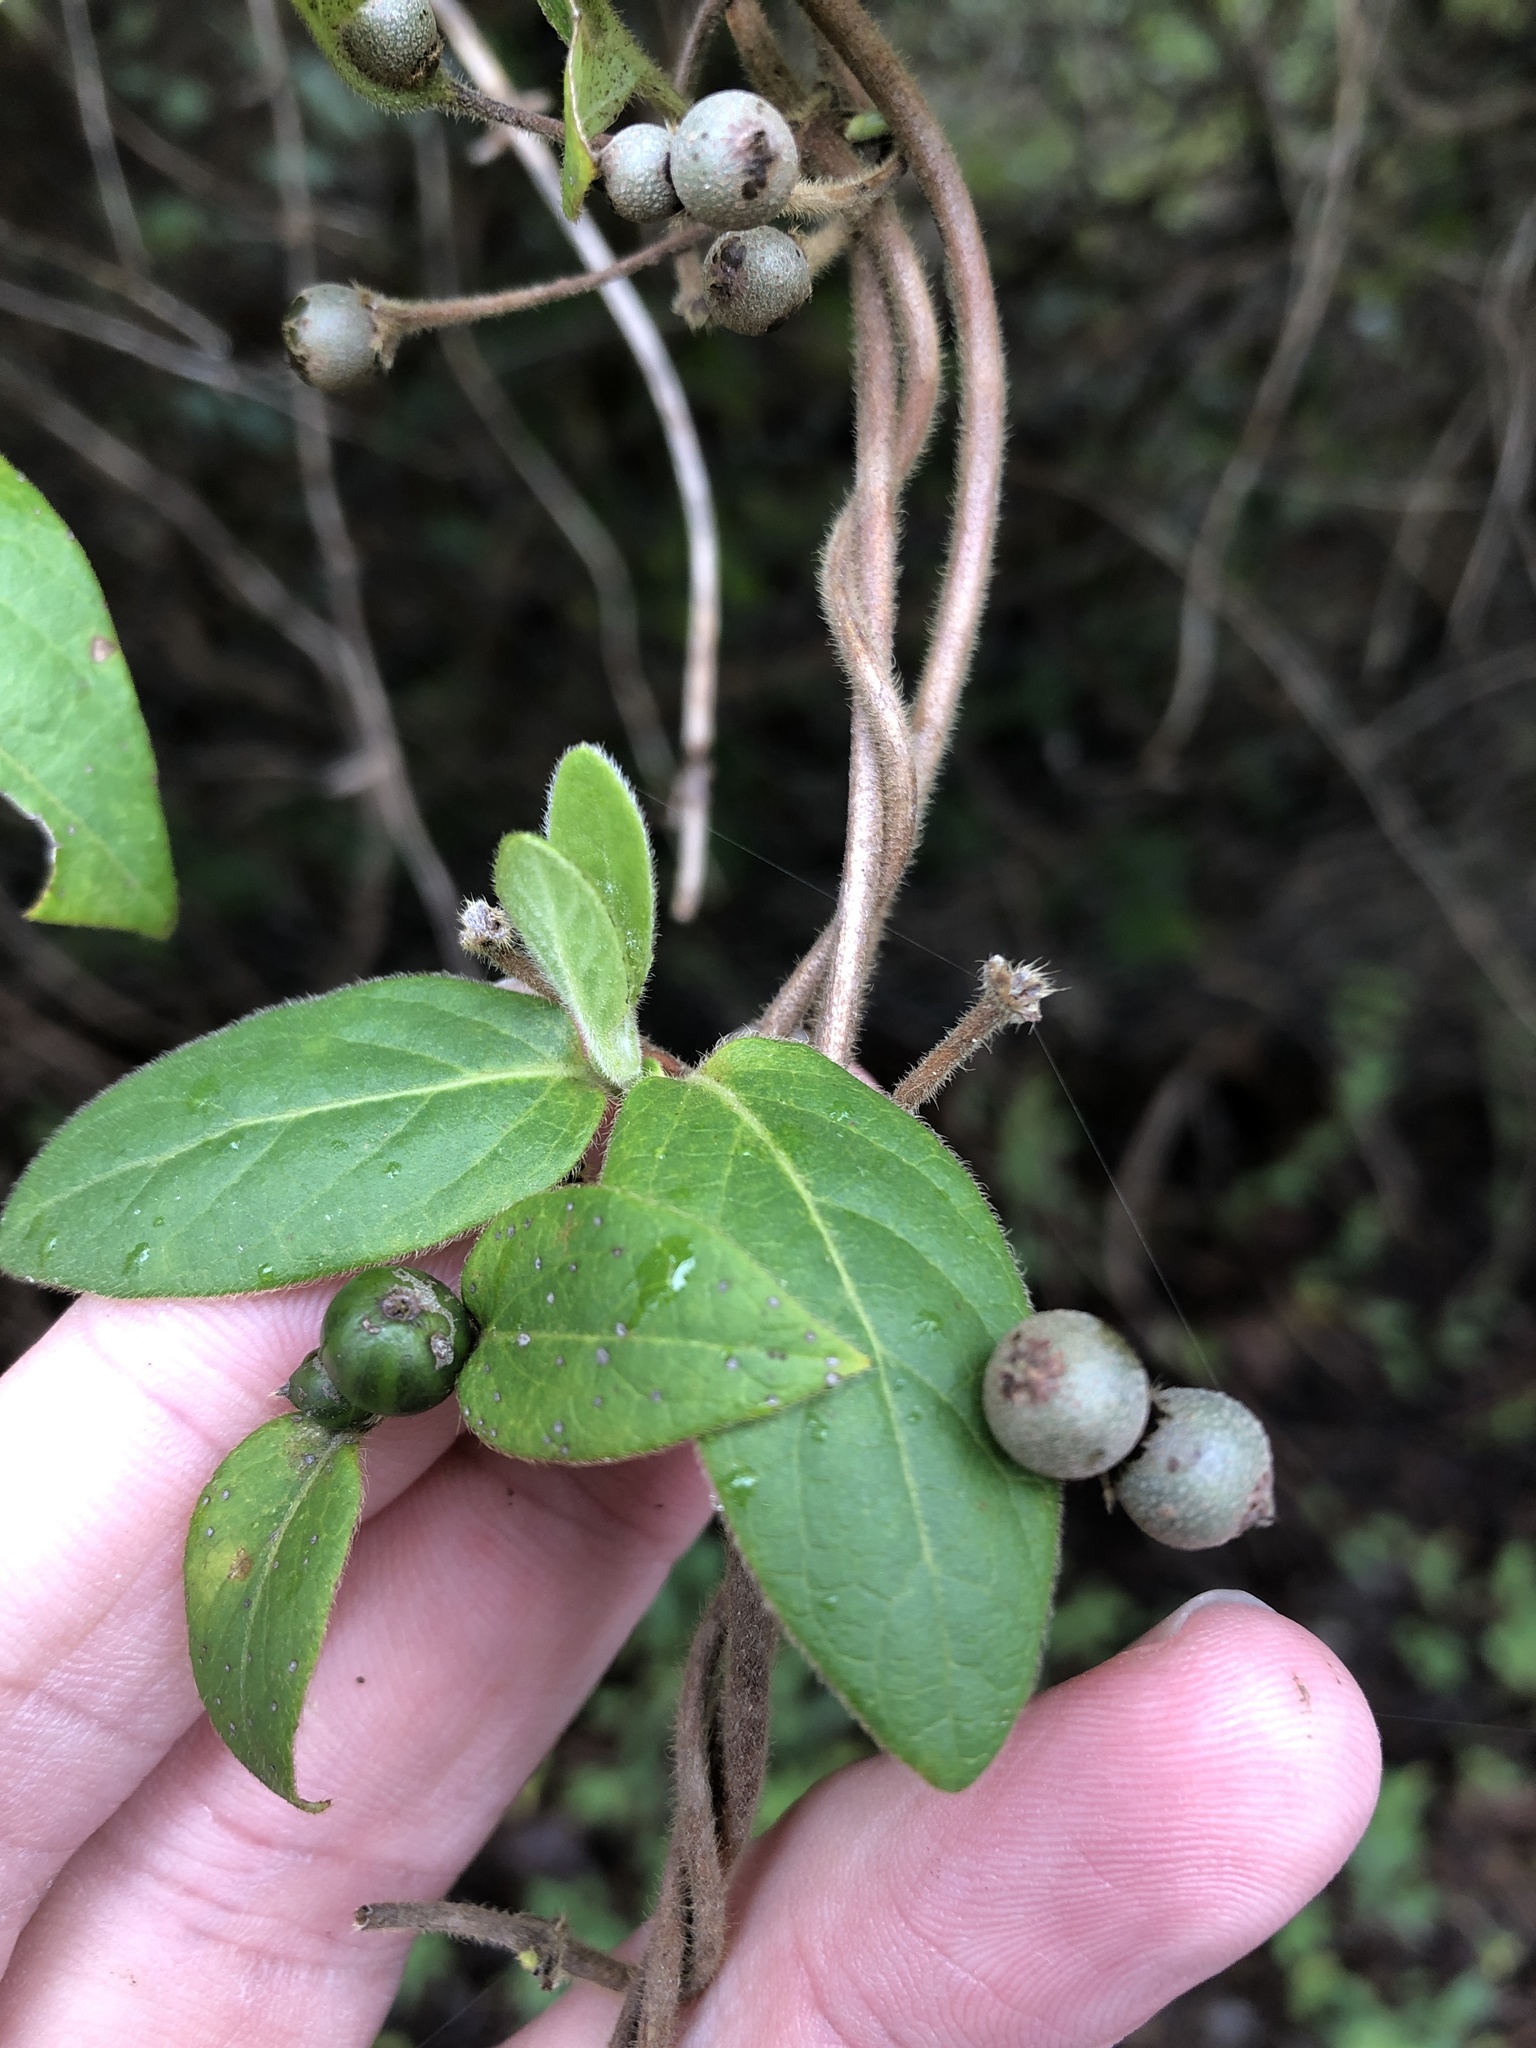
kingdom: Plantae
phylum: Tracheophyta
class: Magnoliopsida
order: Dipsacales
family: Caprifoliaceae
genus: Lonicera
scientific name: Lonicera japonica
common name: Japanese honeysuckle
